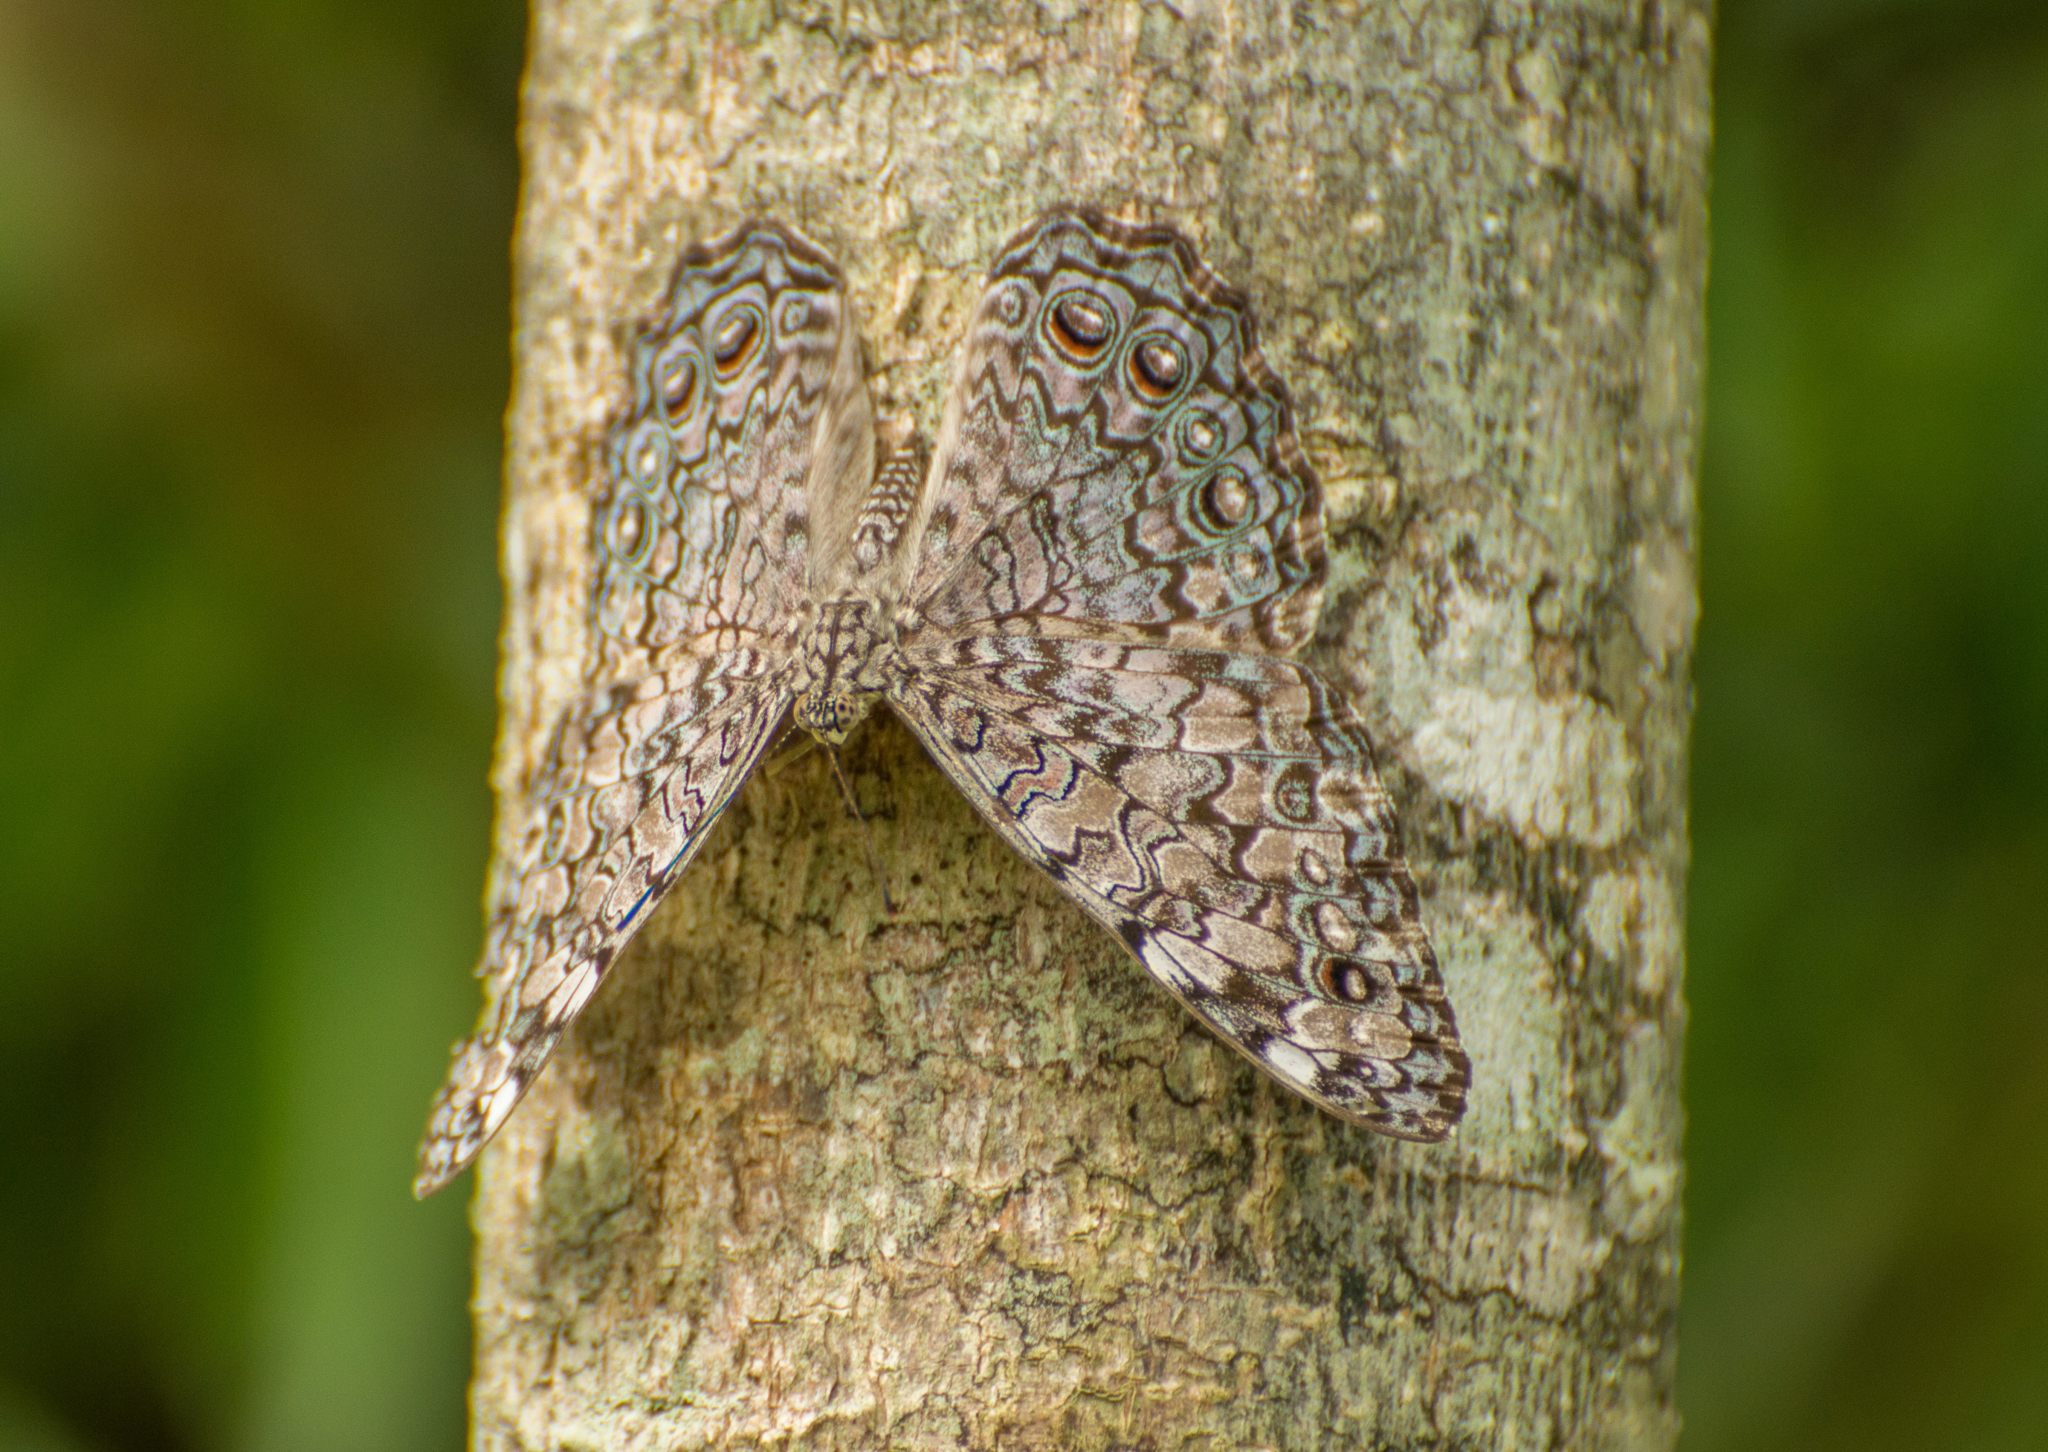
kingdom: Animalia
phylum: Arthropoda
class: Insecta
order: Lepidoptera
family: Nymphalidae
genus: Hamadryas
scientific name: Hamadryas februa
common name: Gray cracker
